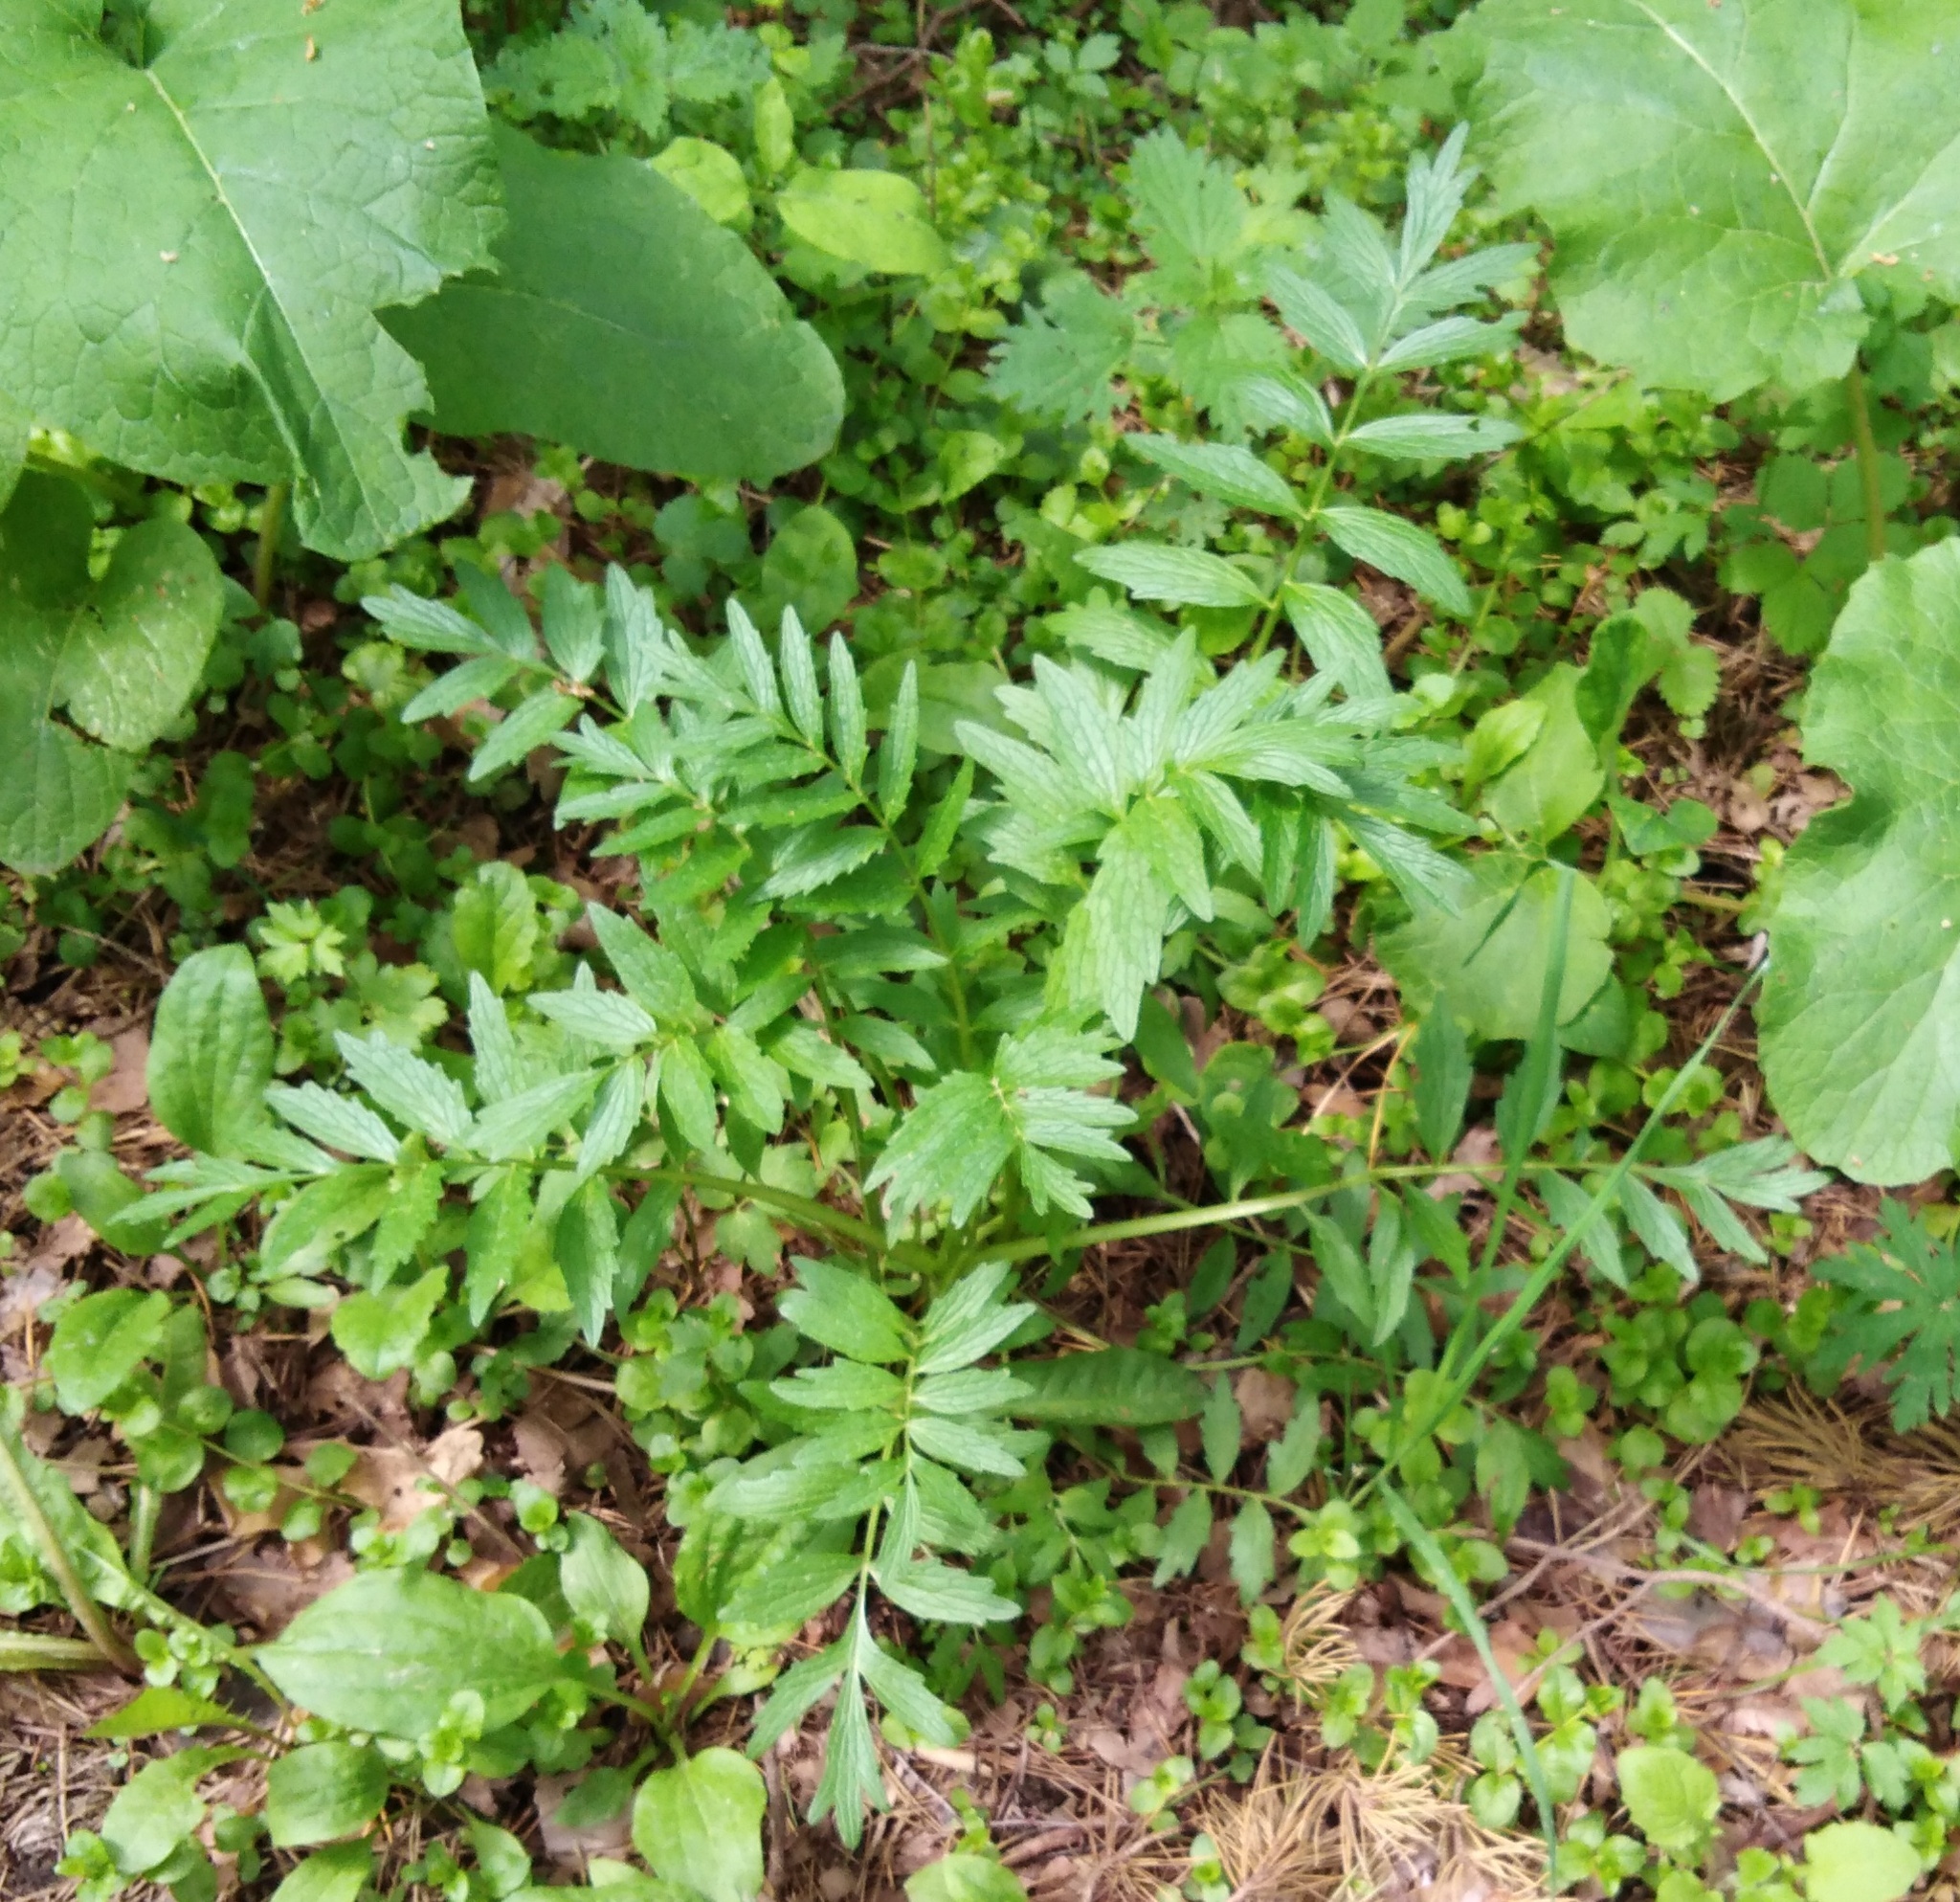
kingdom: Plantae
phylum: Tracheophyta
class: Magnoliopsida
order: Dipsacales
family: Caprifoliaceae
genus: Valeriana
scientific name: Valeriana officinalis
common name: Common valerian
